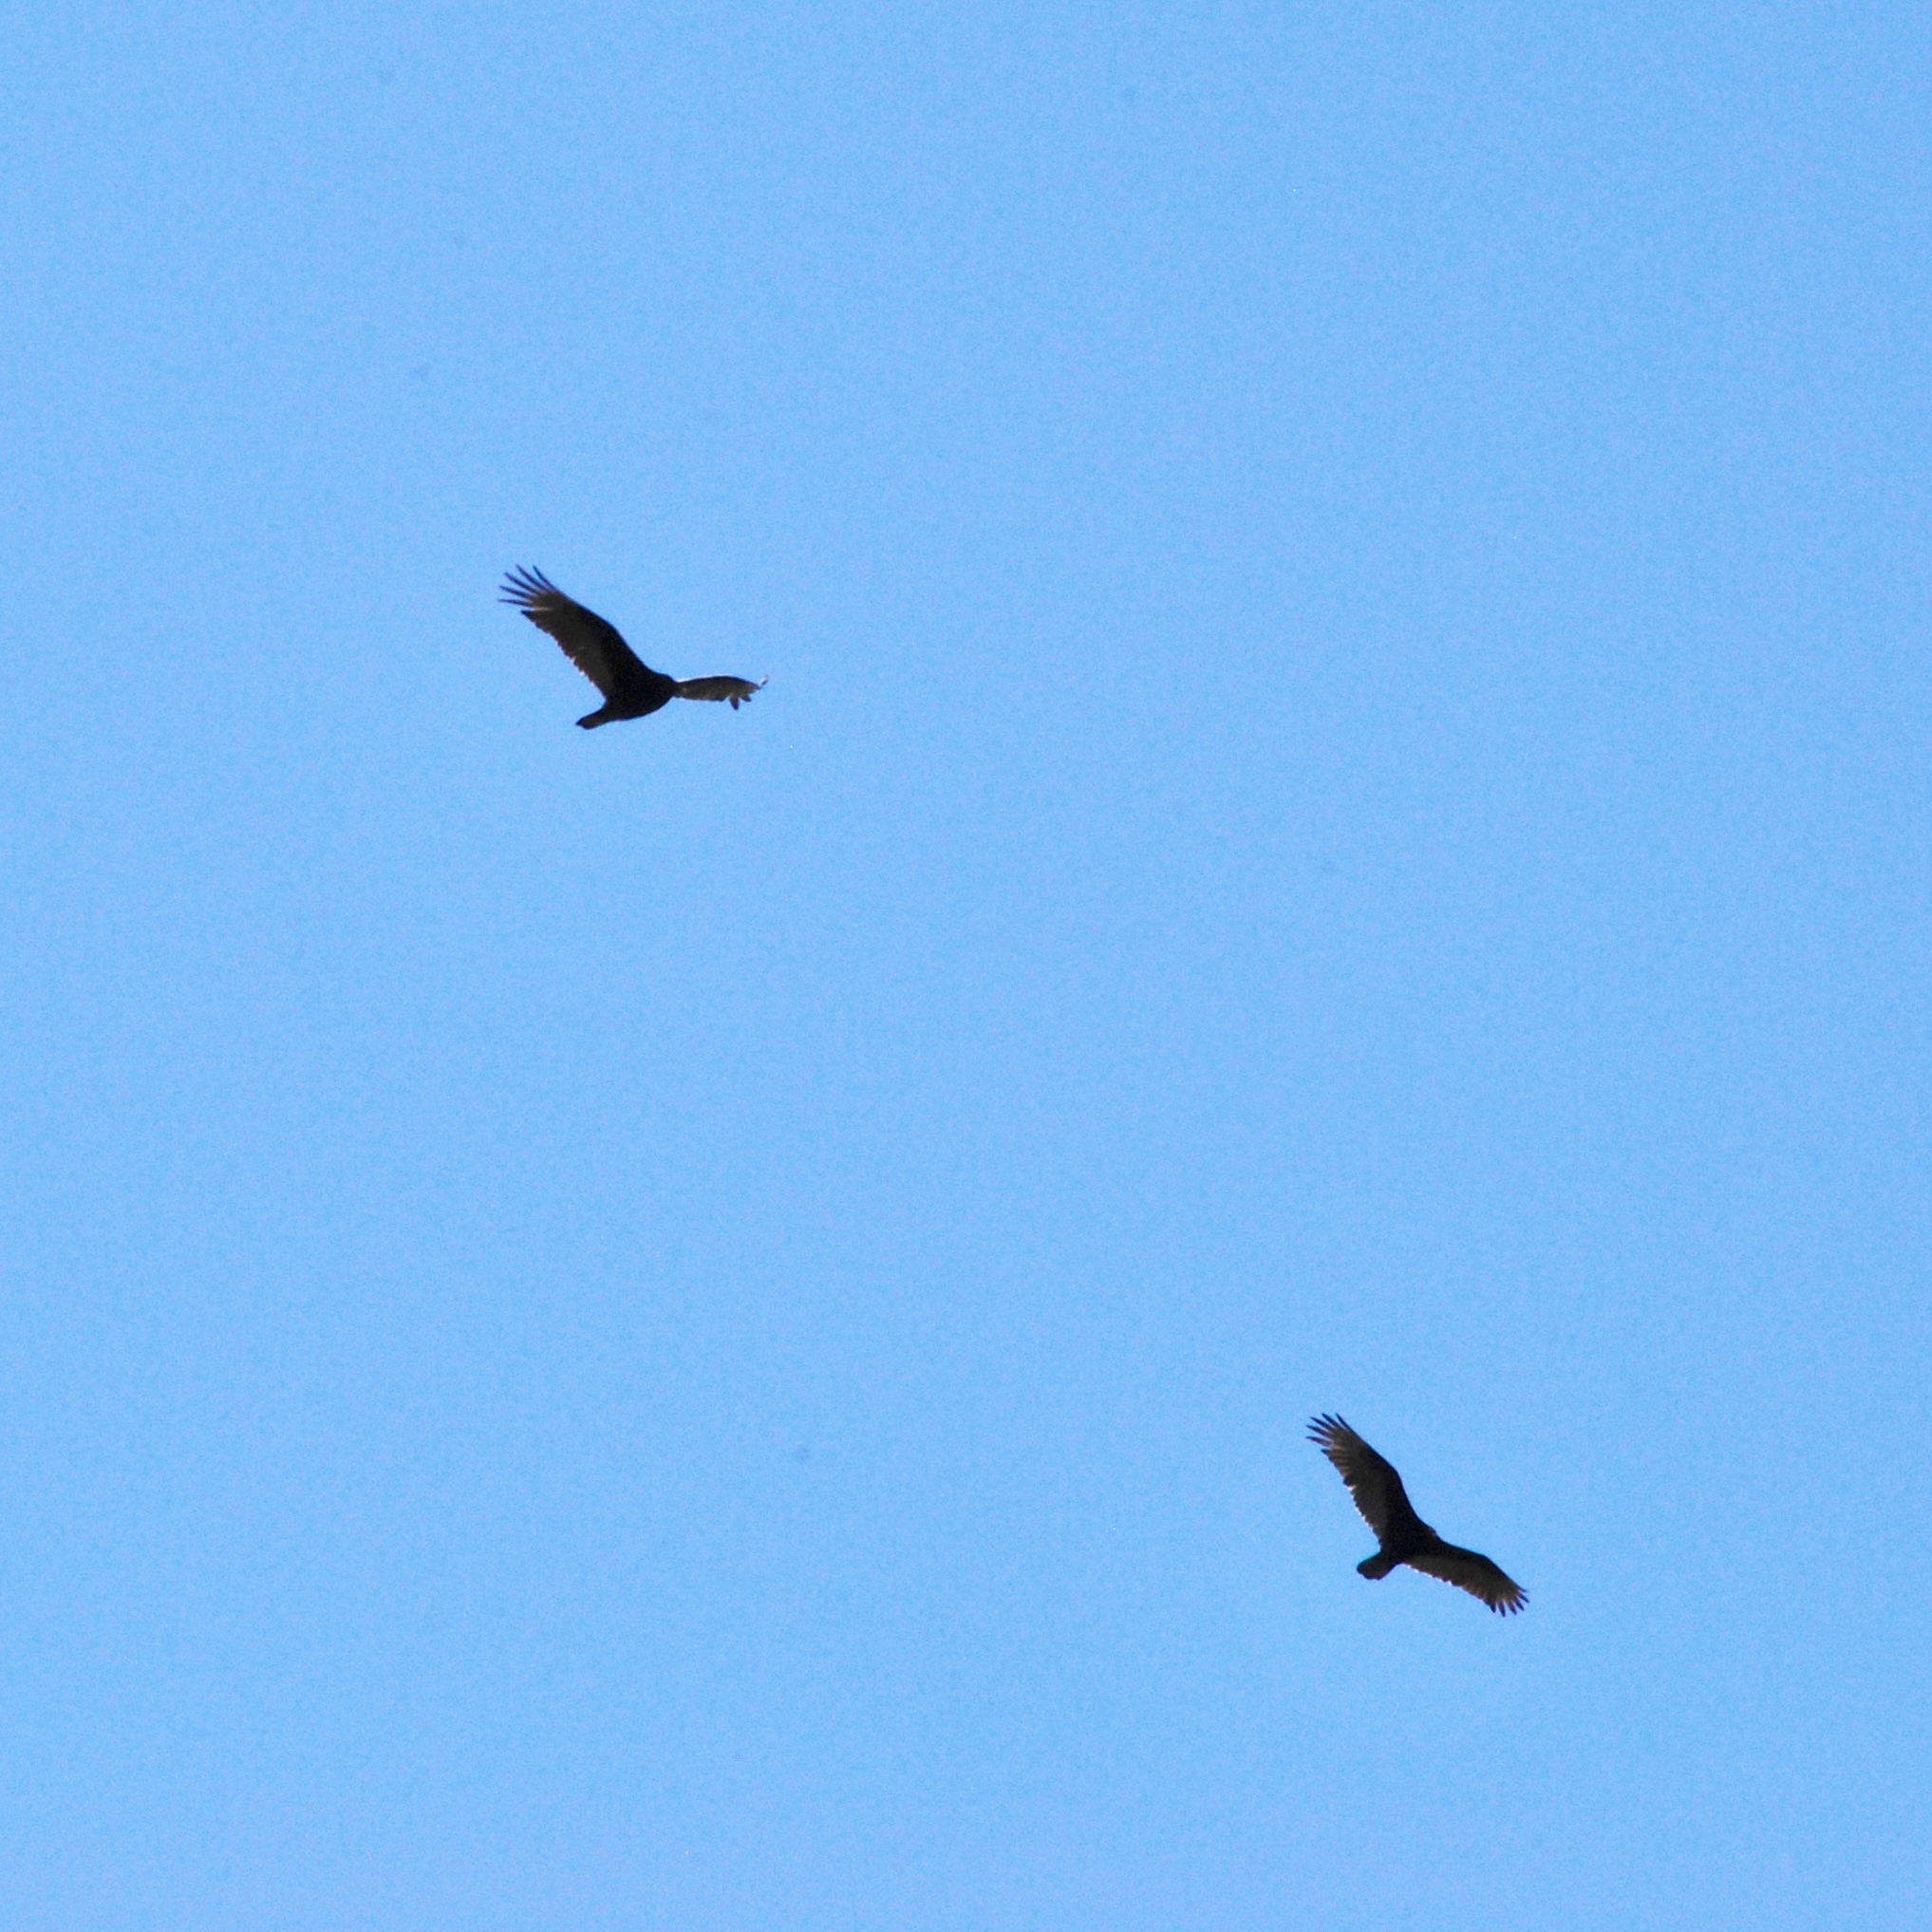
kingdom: Animalia
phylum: Chordata
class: Aves
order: Accipitriformes
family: Cathartidae
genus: Cathartes
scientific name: Cathartes aura
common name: Turkey vulture
